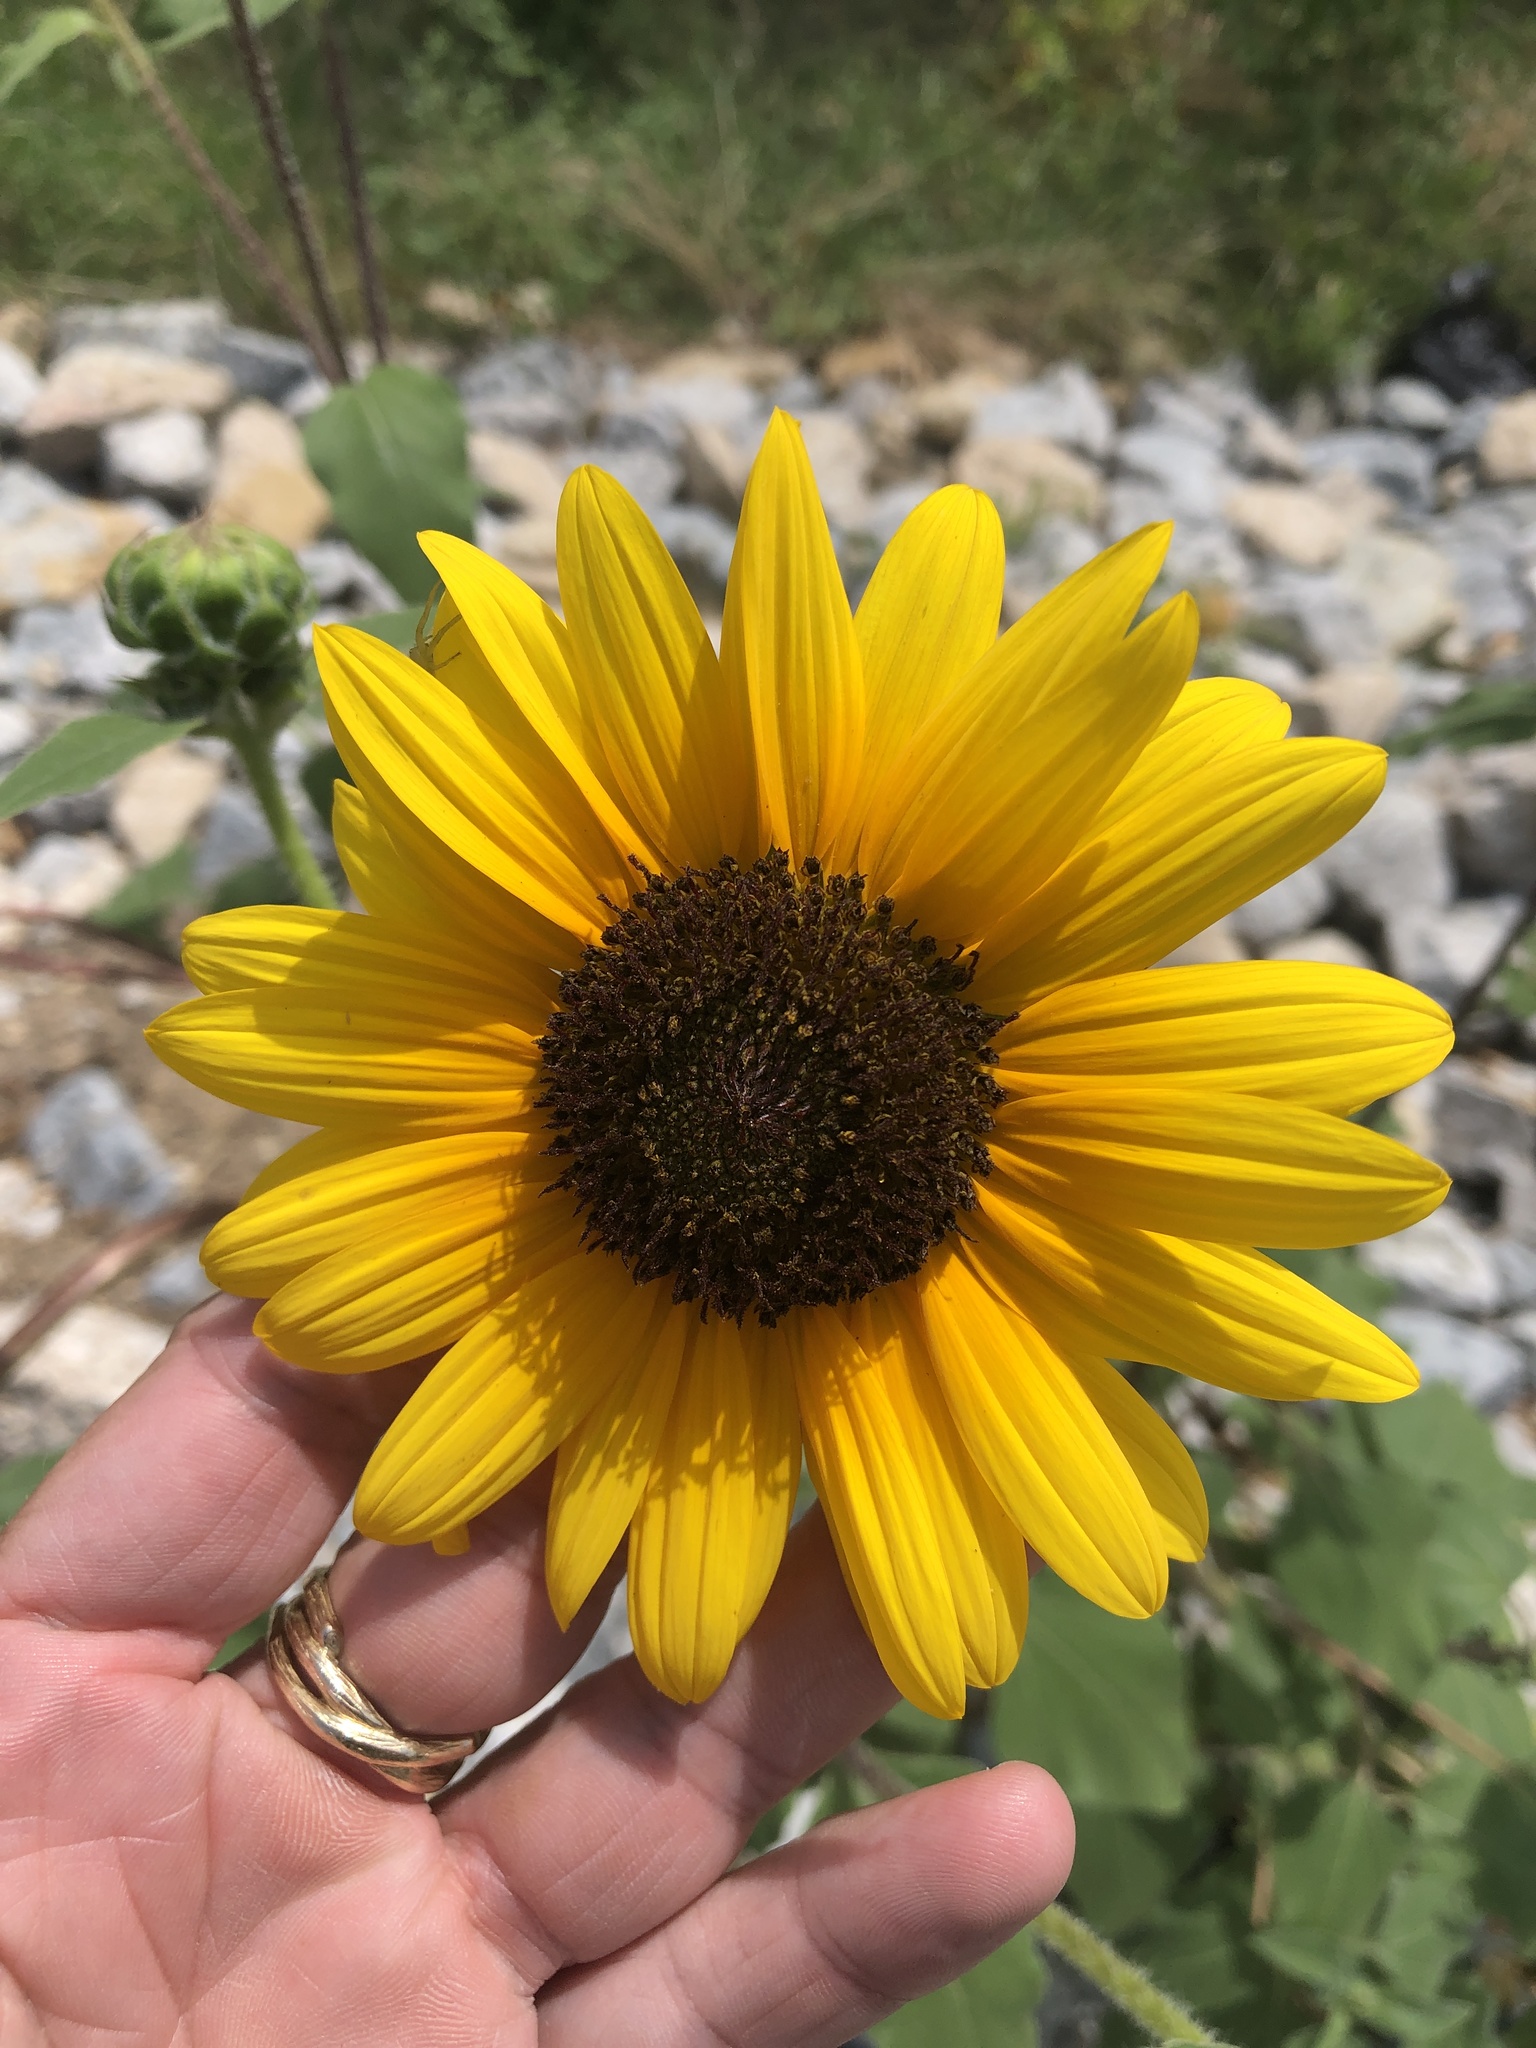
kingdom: Plantae
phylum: Tracheophyta
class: Magnoliopsida
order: Asterales
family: Asteraceae
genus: Helianthus
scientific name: Helianthus annuus
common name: Sunflower
